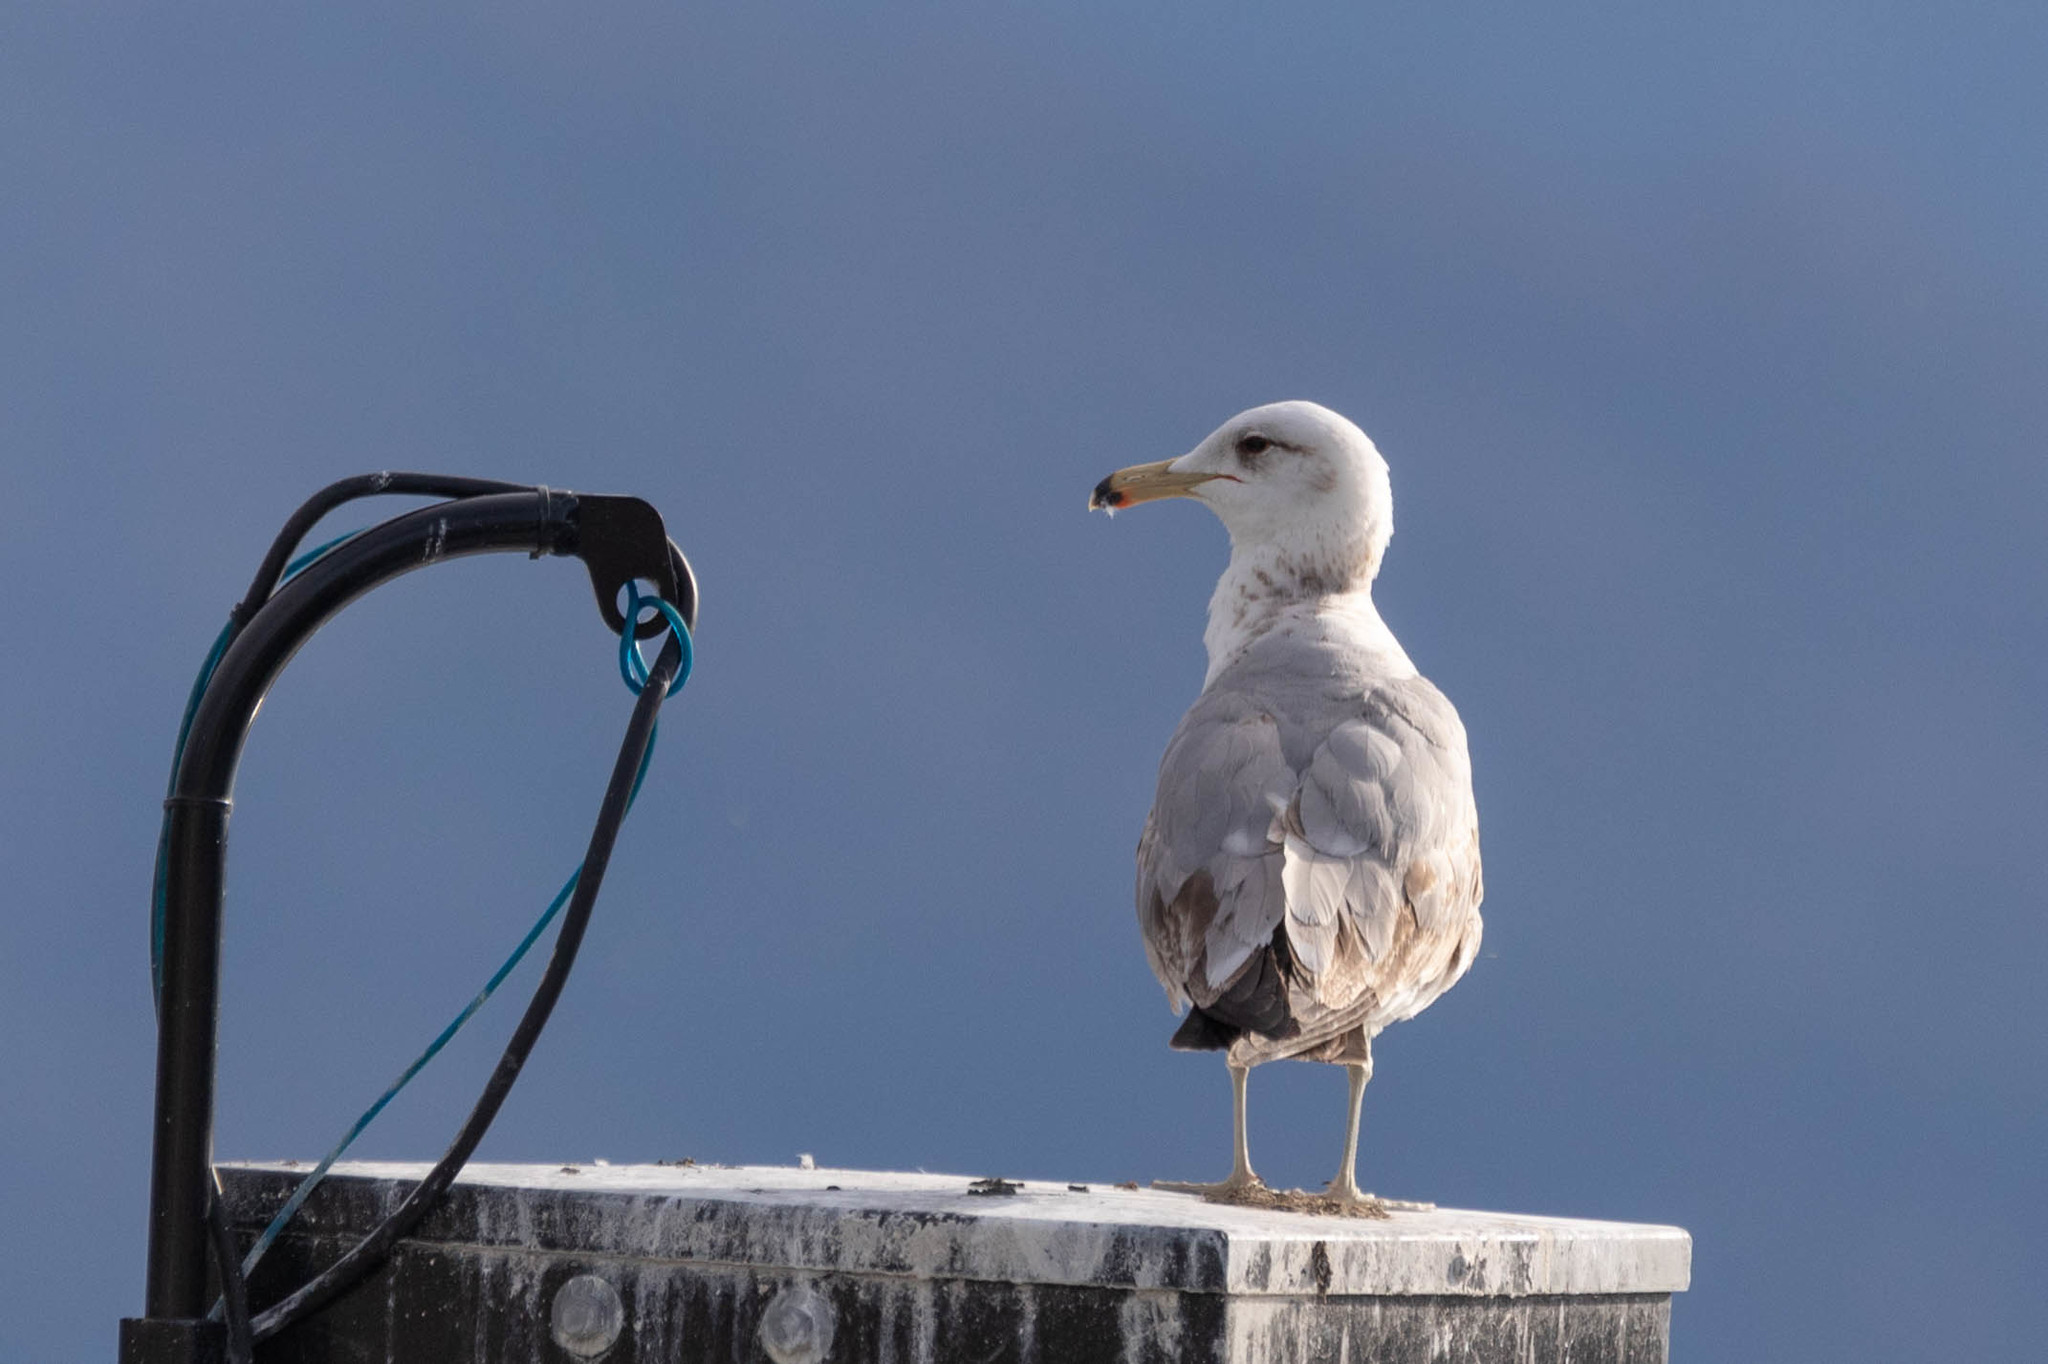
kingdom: Animalia
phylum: Chordata
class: Aves
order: Charadriiformes
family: Laridae
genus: Larus
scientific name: Larus californicus
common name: California gull
